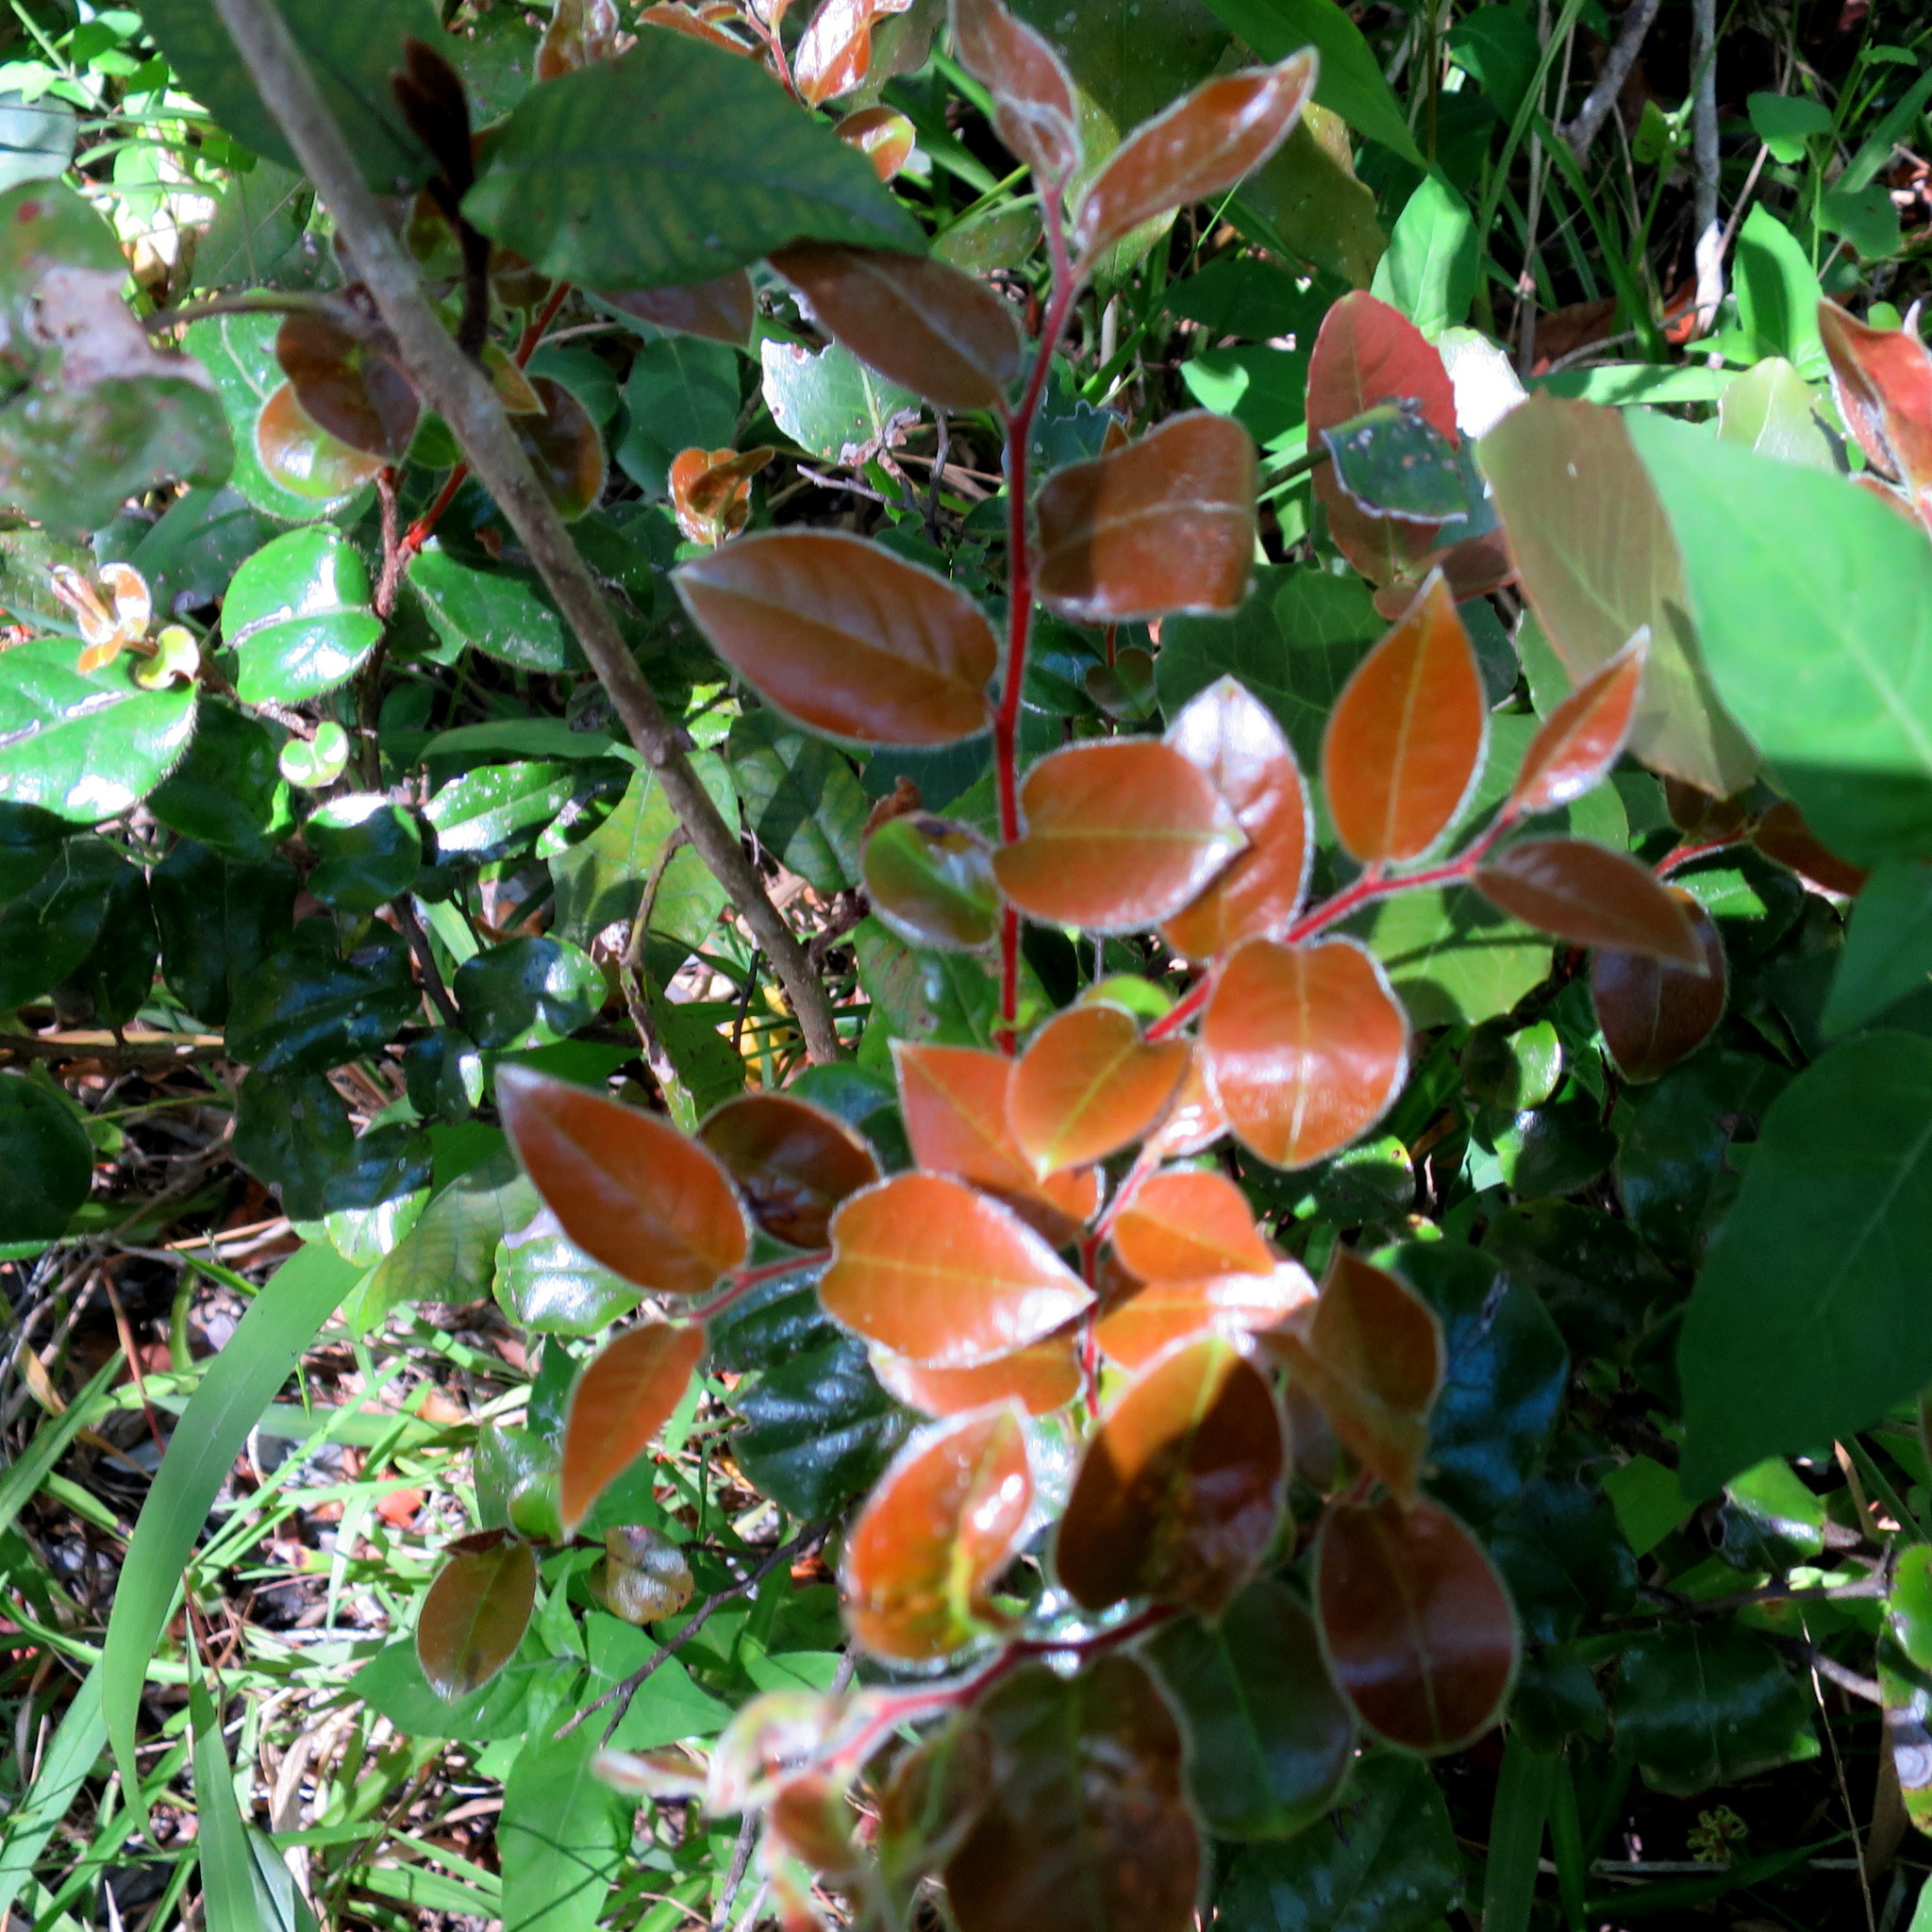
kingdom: Plantae
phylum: Tracheophyta
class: Magnoliopsida
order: Ericales
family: Ebenaceae
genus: Diospyros
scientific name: Diospyros whyteana
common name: Bladder-nut
